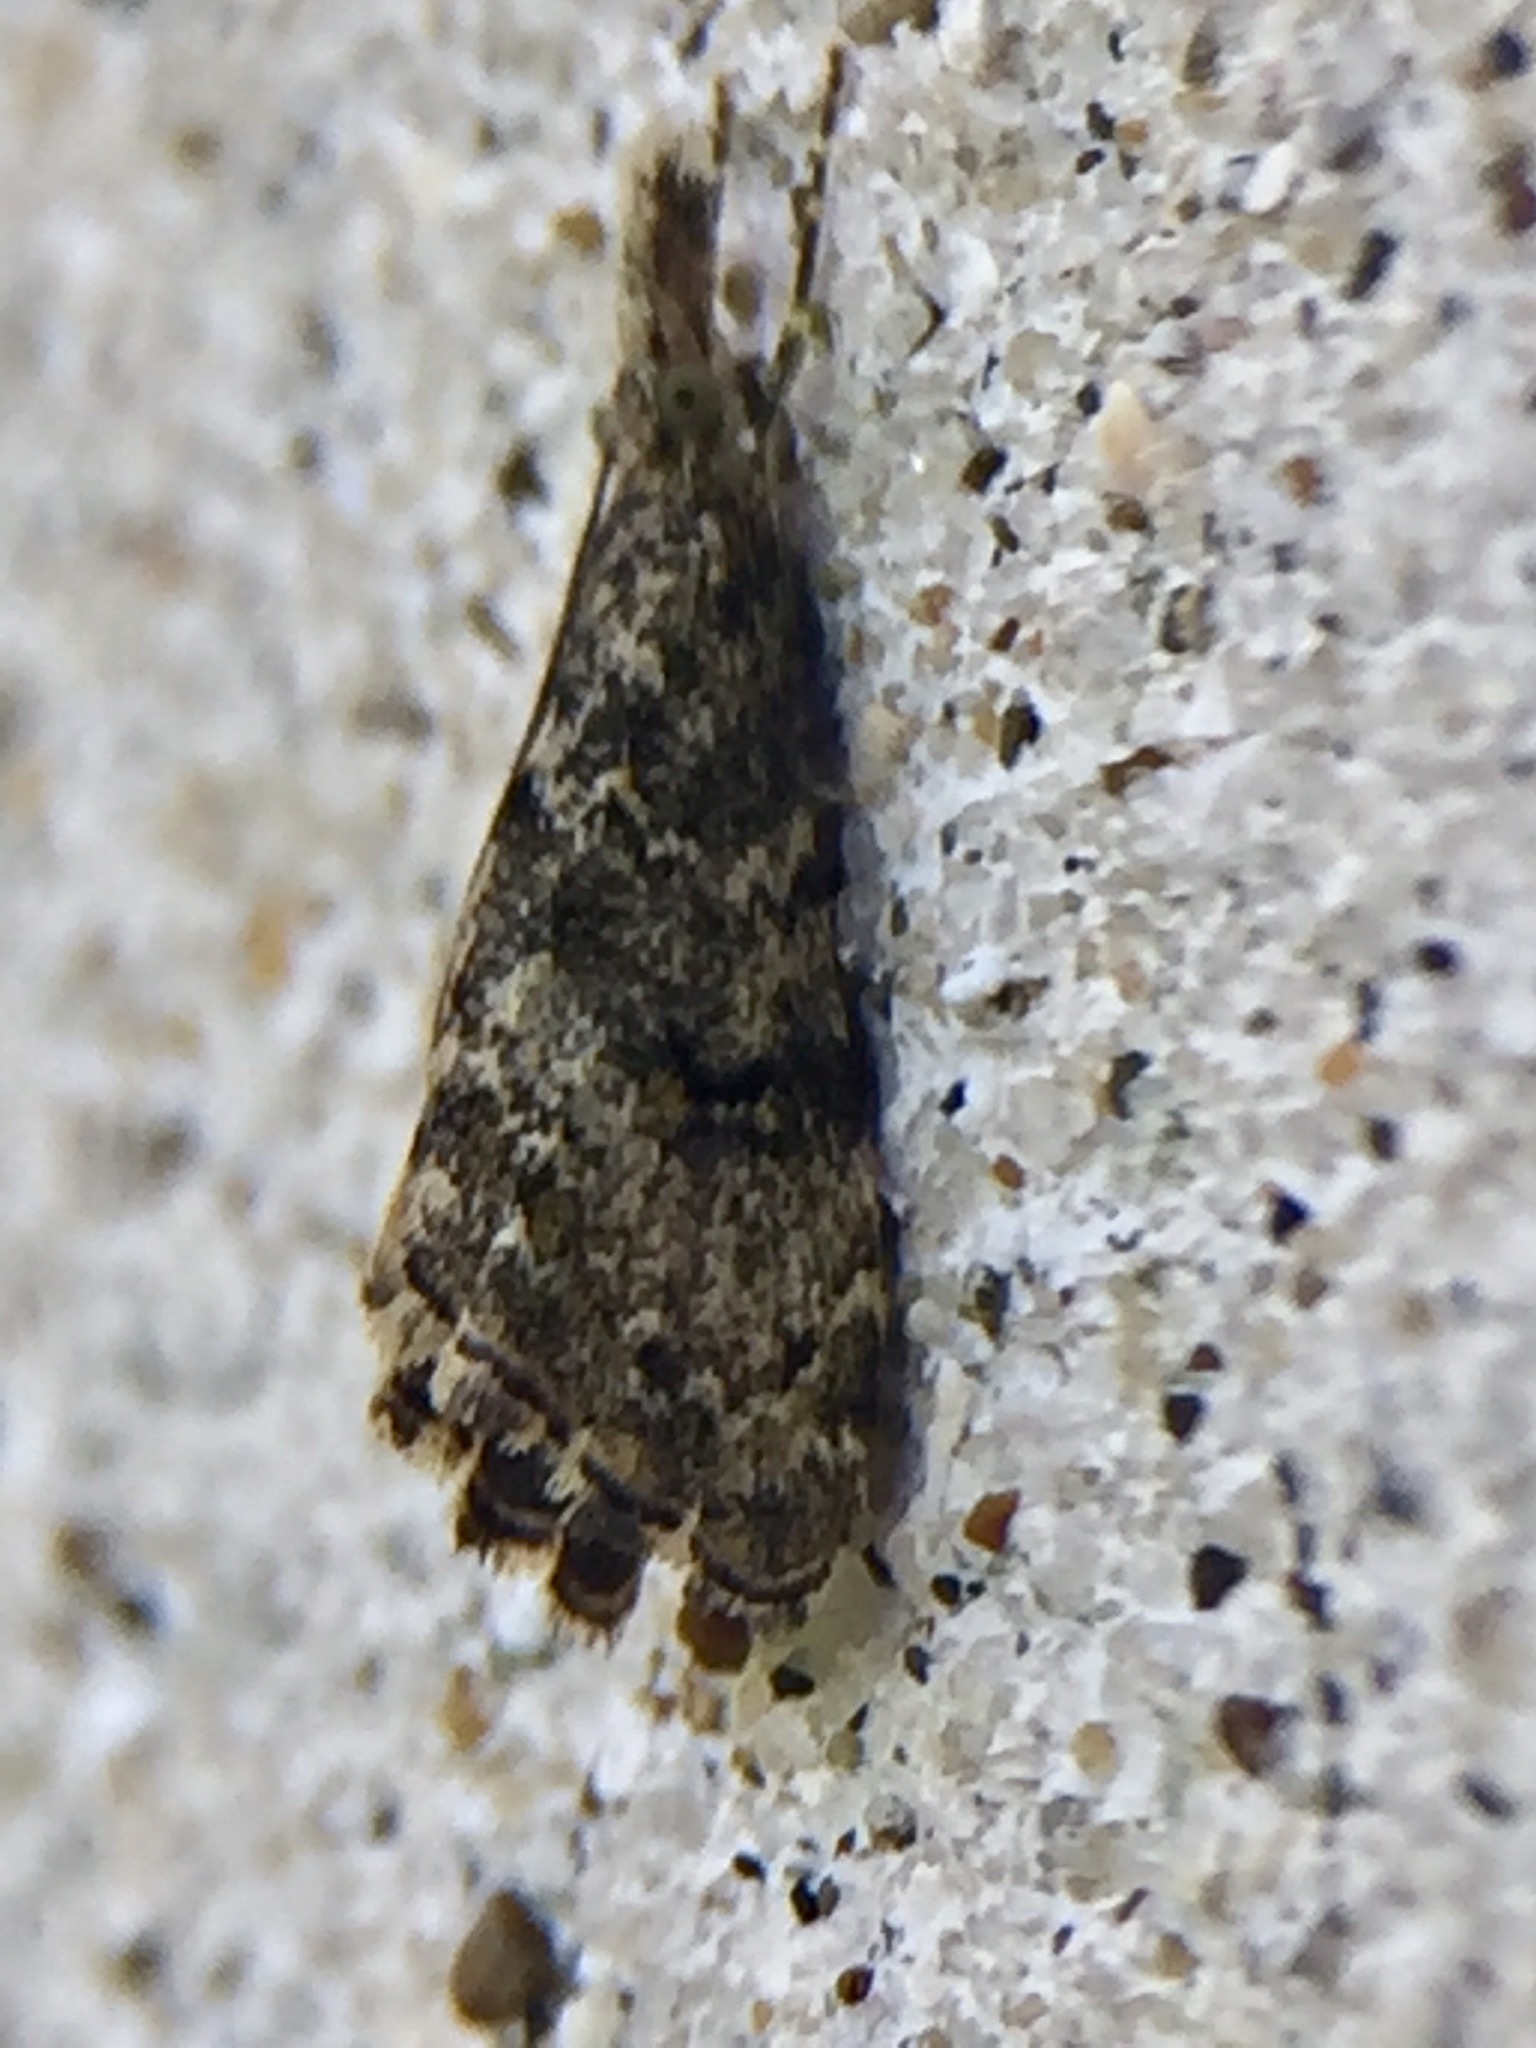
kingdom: Animalia
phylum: Arthropoda
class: Insecta
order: Lepidoptera
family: Crambidae
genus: Glaucocharis
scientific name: Glaucocharis elaina
